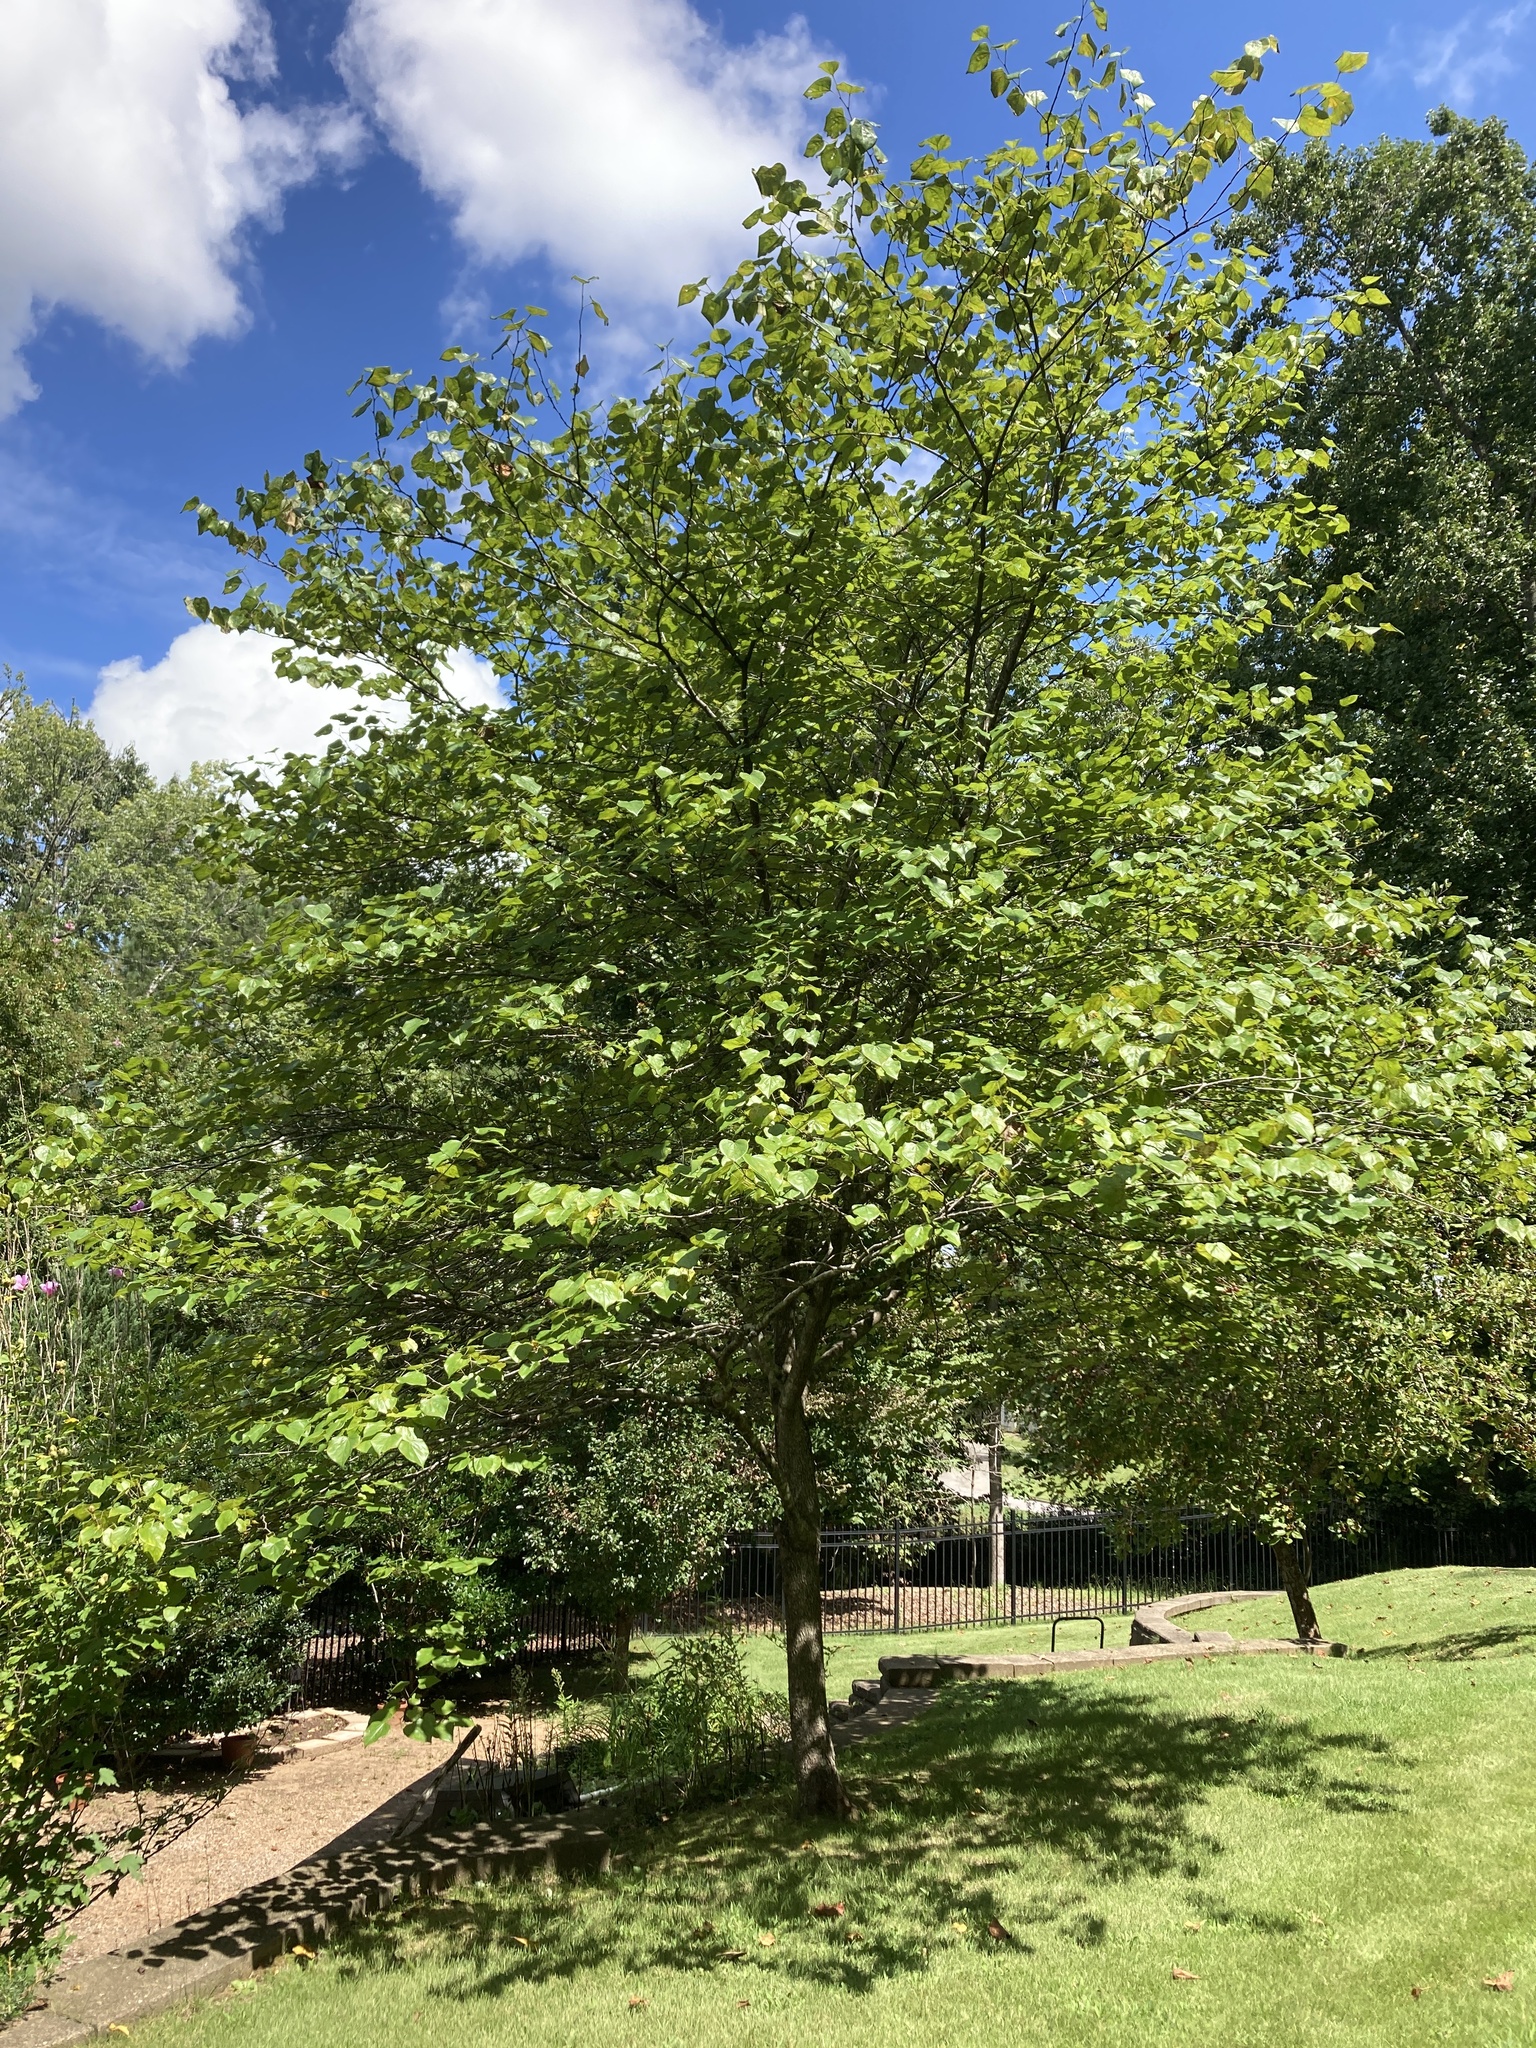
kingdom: Plantae
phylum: Tracheophyta
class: Magnoliopsida
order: Fabales
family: Fabaceae
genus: Cercis
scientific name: Cercis canadensis
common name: Eastern redbud
